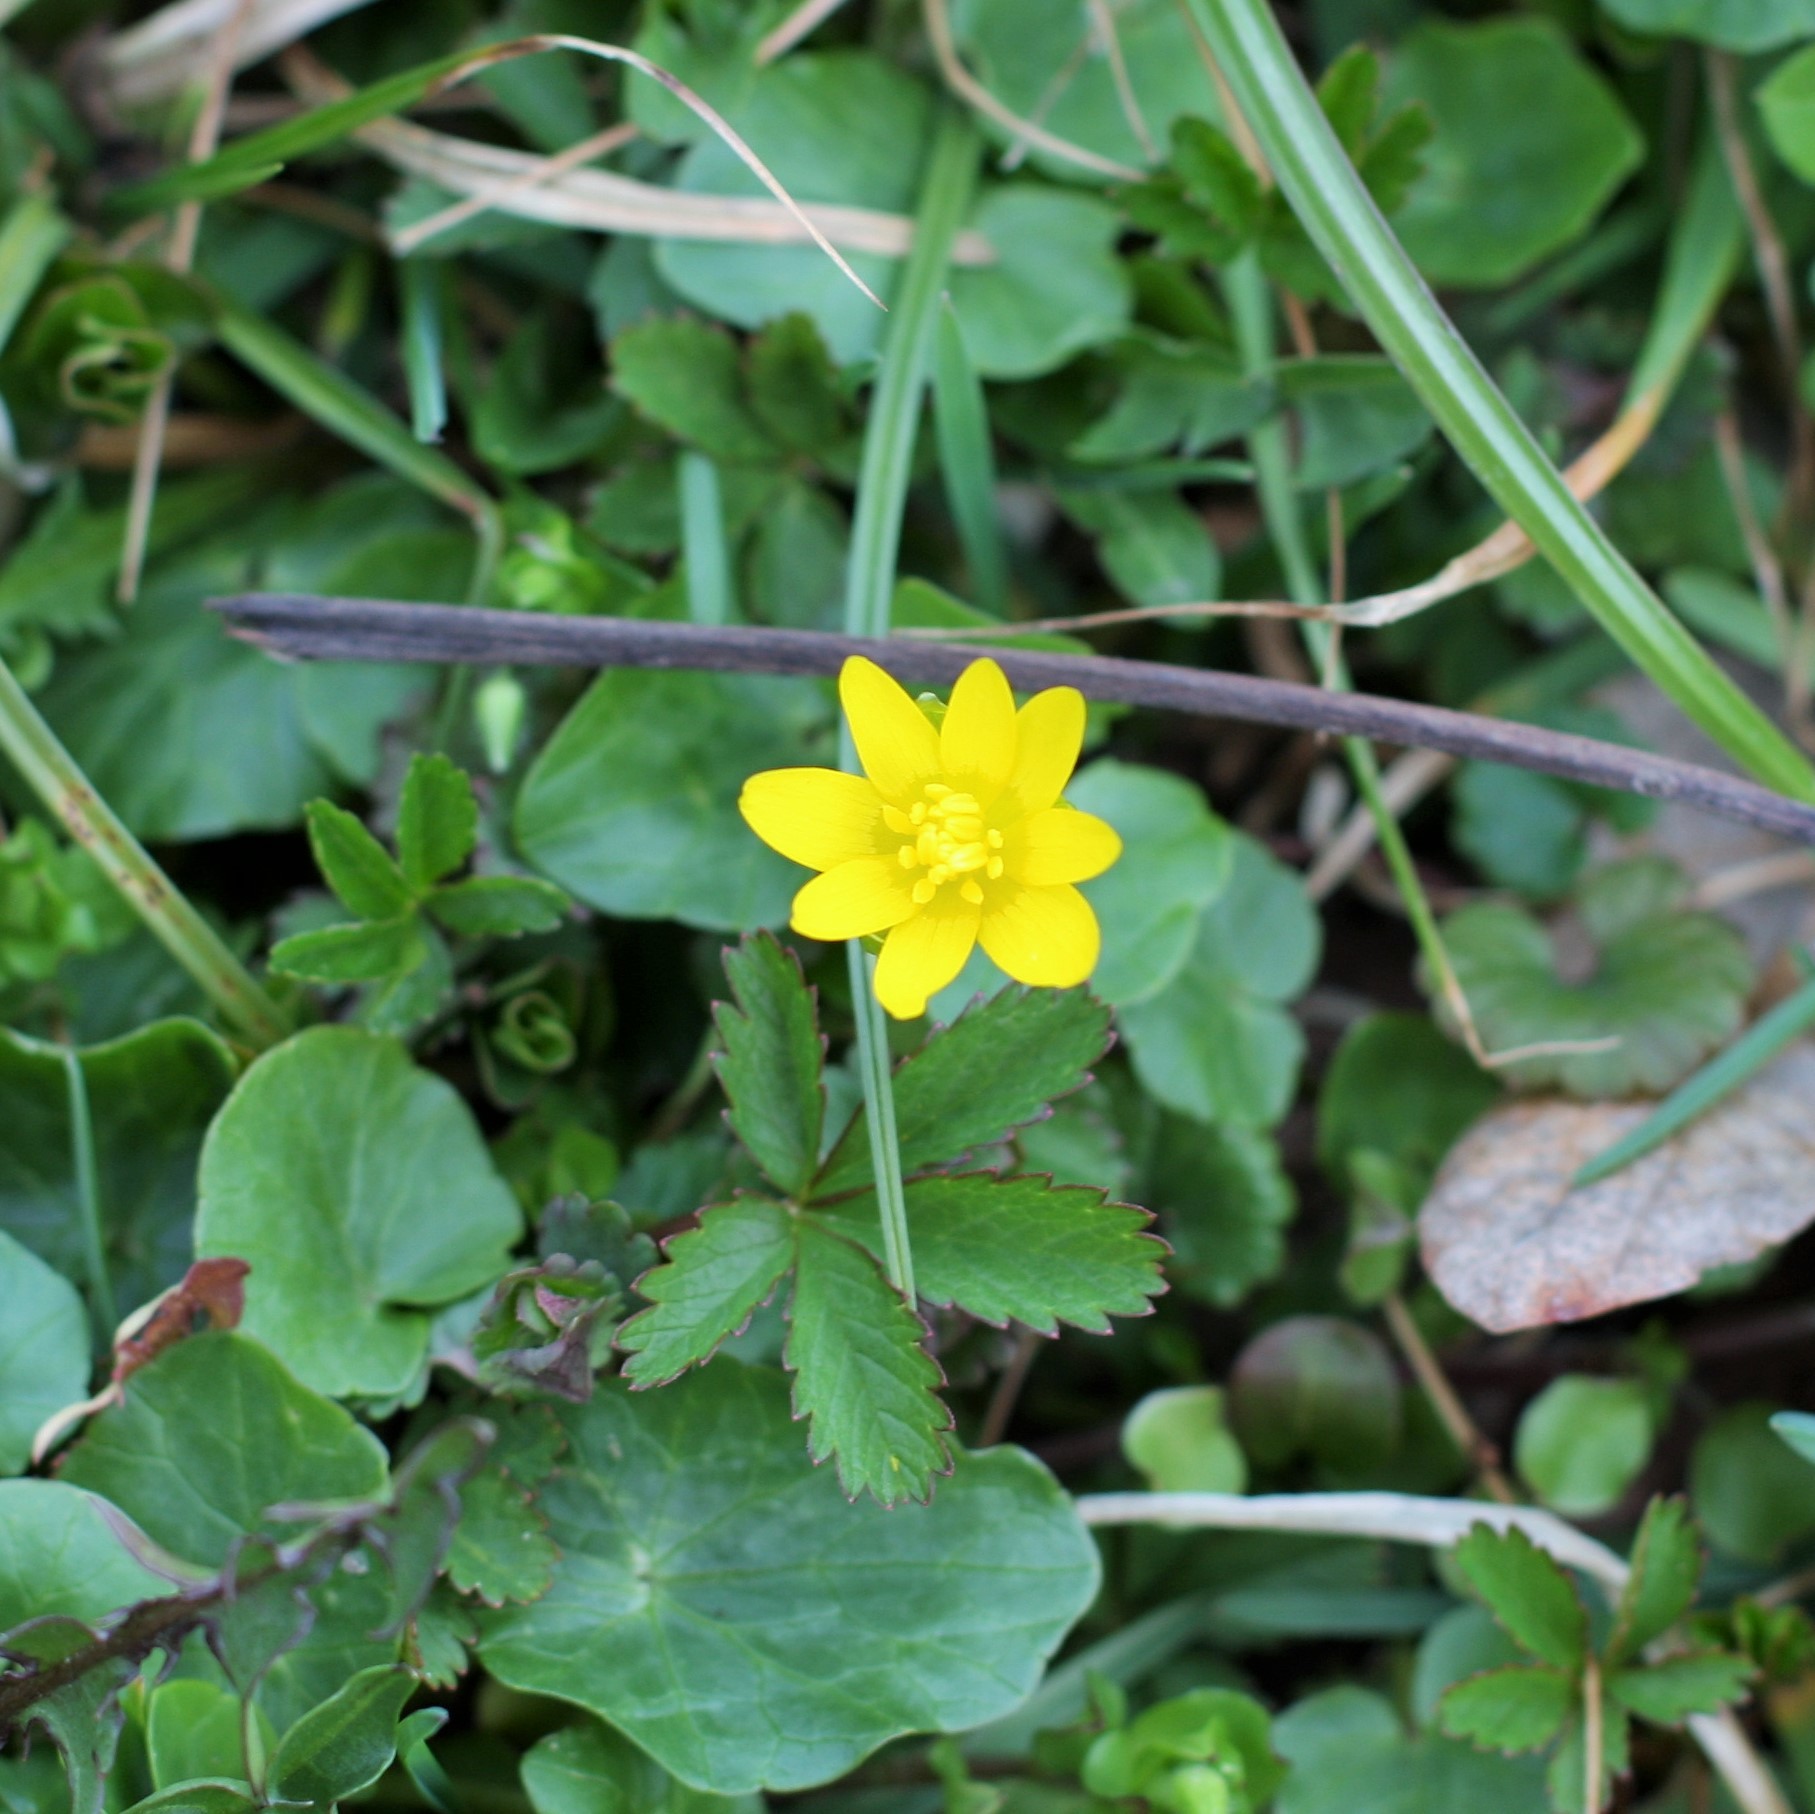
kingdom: Plantae
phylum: Tracheophyta
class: Magnoliopsida
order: Ranunculales
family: Ranunculaceae
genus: Ficaria
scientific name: Ficaria verna
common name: Lesser celandine
